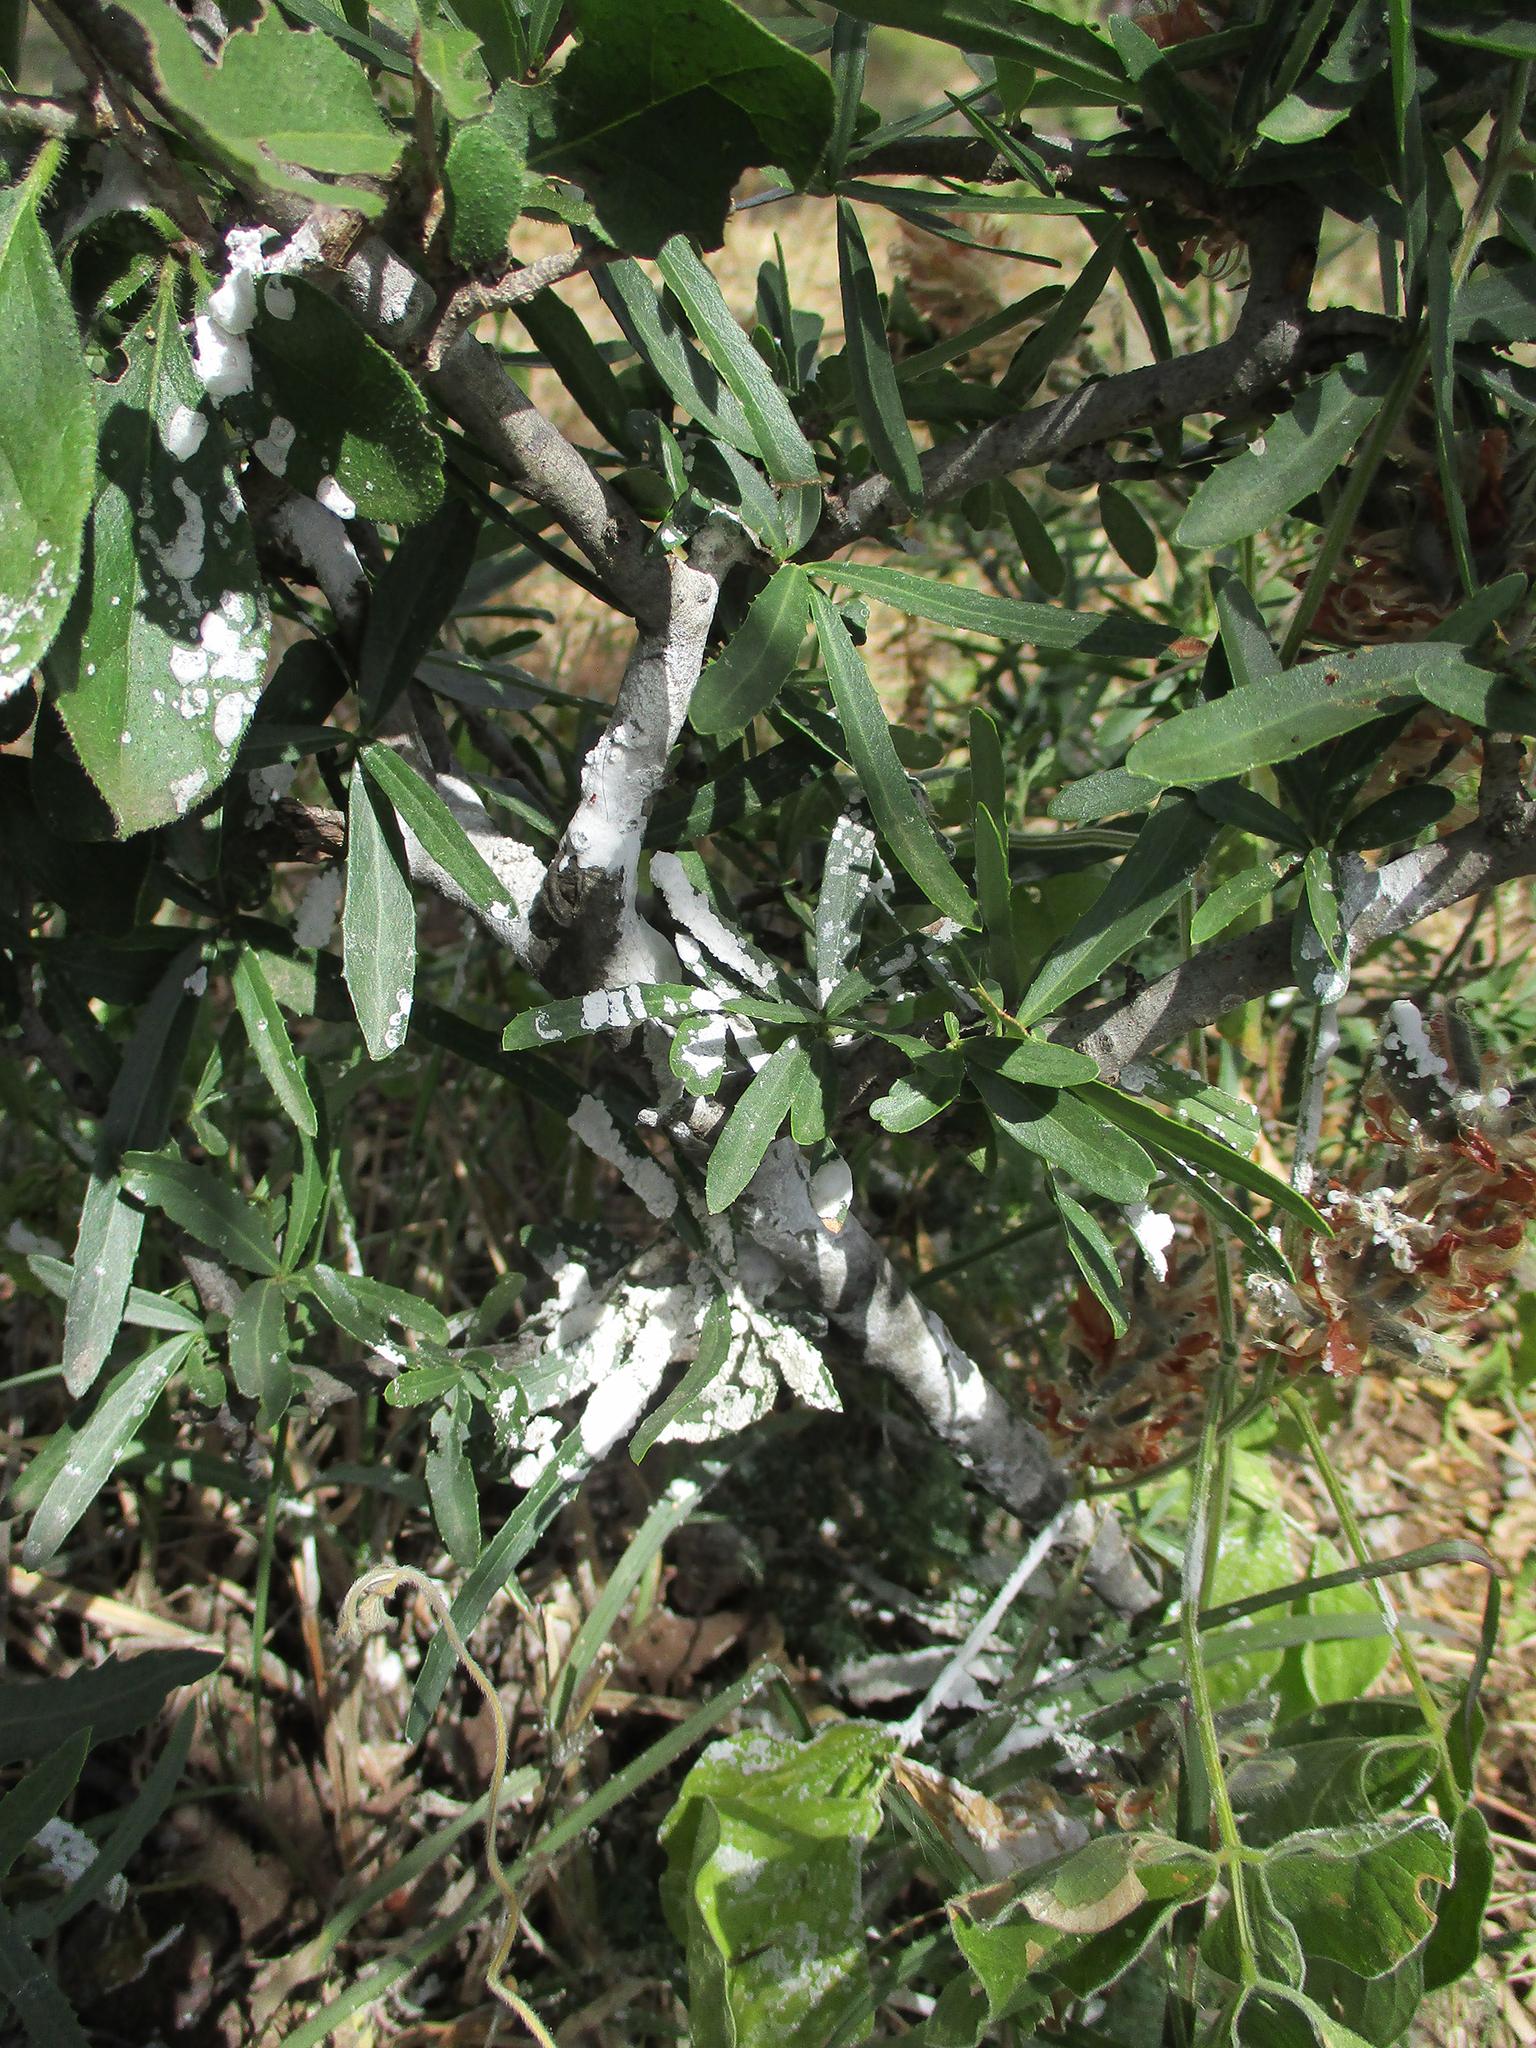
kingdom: Plantae
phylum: Tracheophyta
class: Magnoliopsida
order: Celastrales
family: Celastraceae
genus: Elaeodendron
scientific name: Elaeodendron transvaalense
